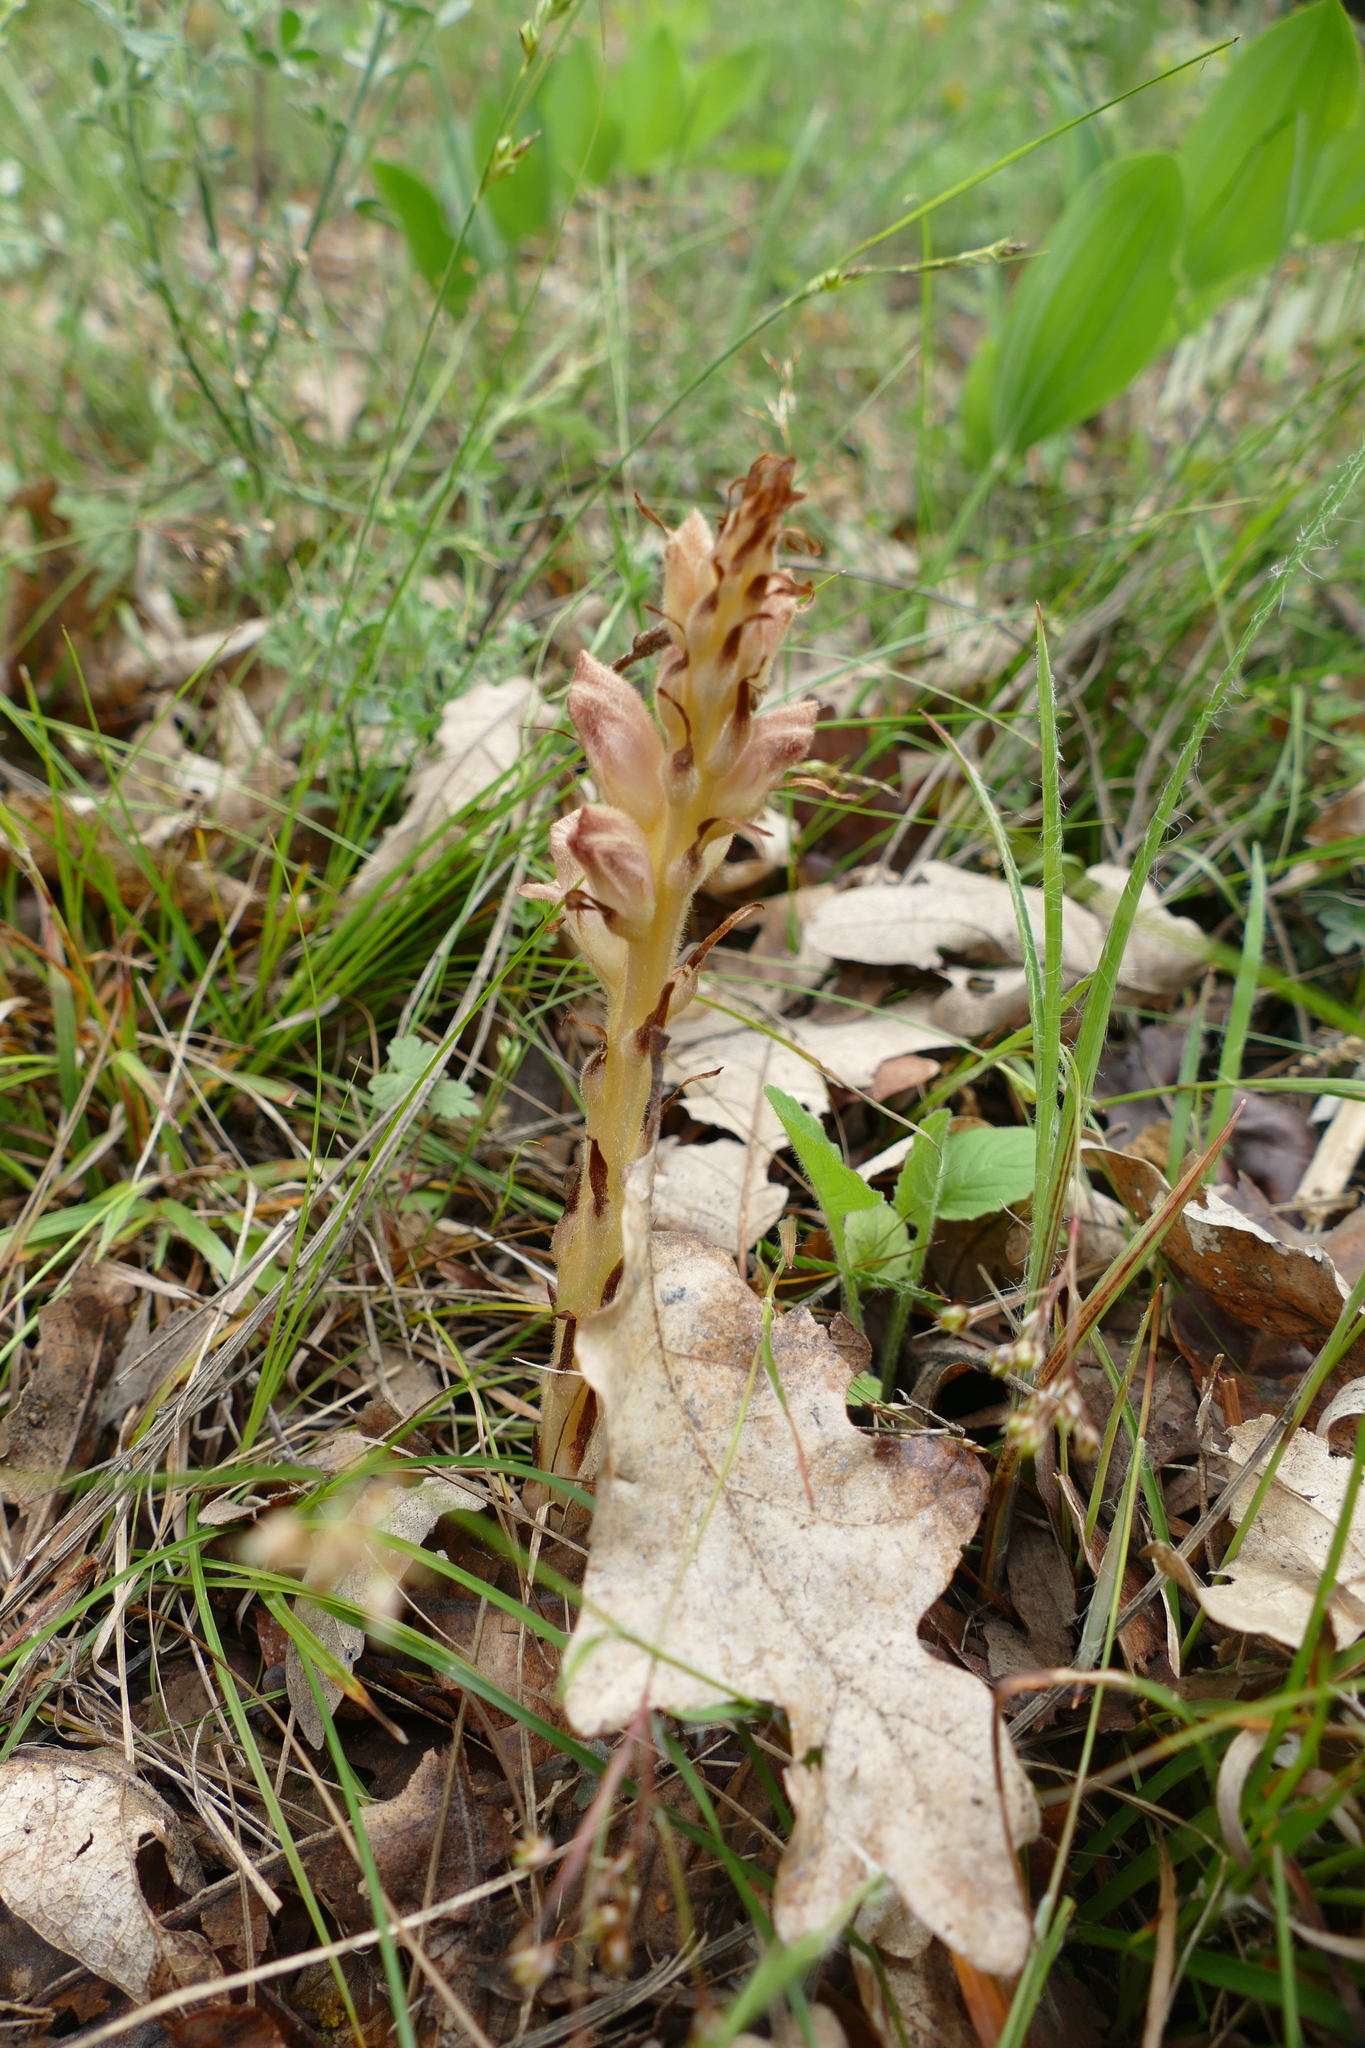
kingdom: Plantae
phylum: Tracheophyta
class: Magnoliopsida
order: Lamiales
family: Orobanchaceae
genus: Orobanche
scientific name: Orobanche rapum-genistae
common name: Greater broomrape
